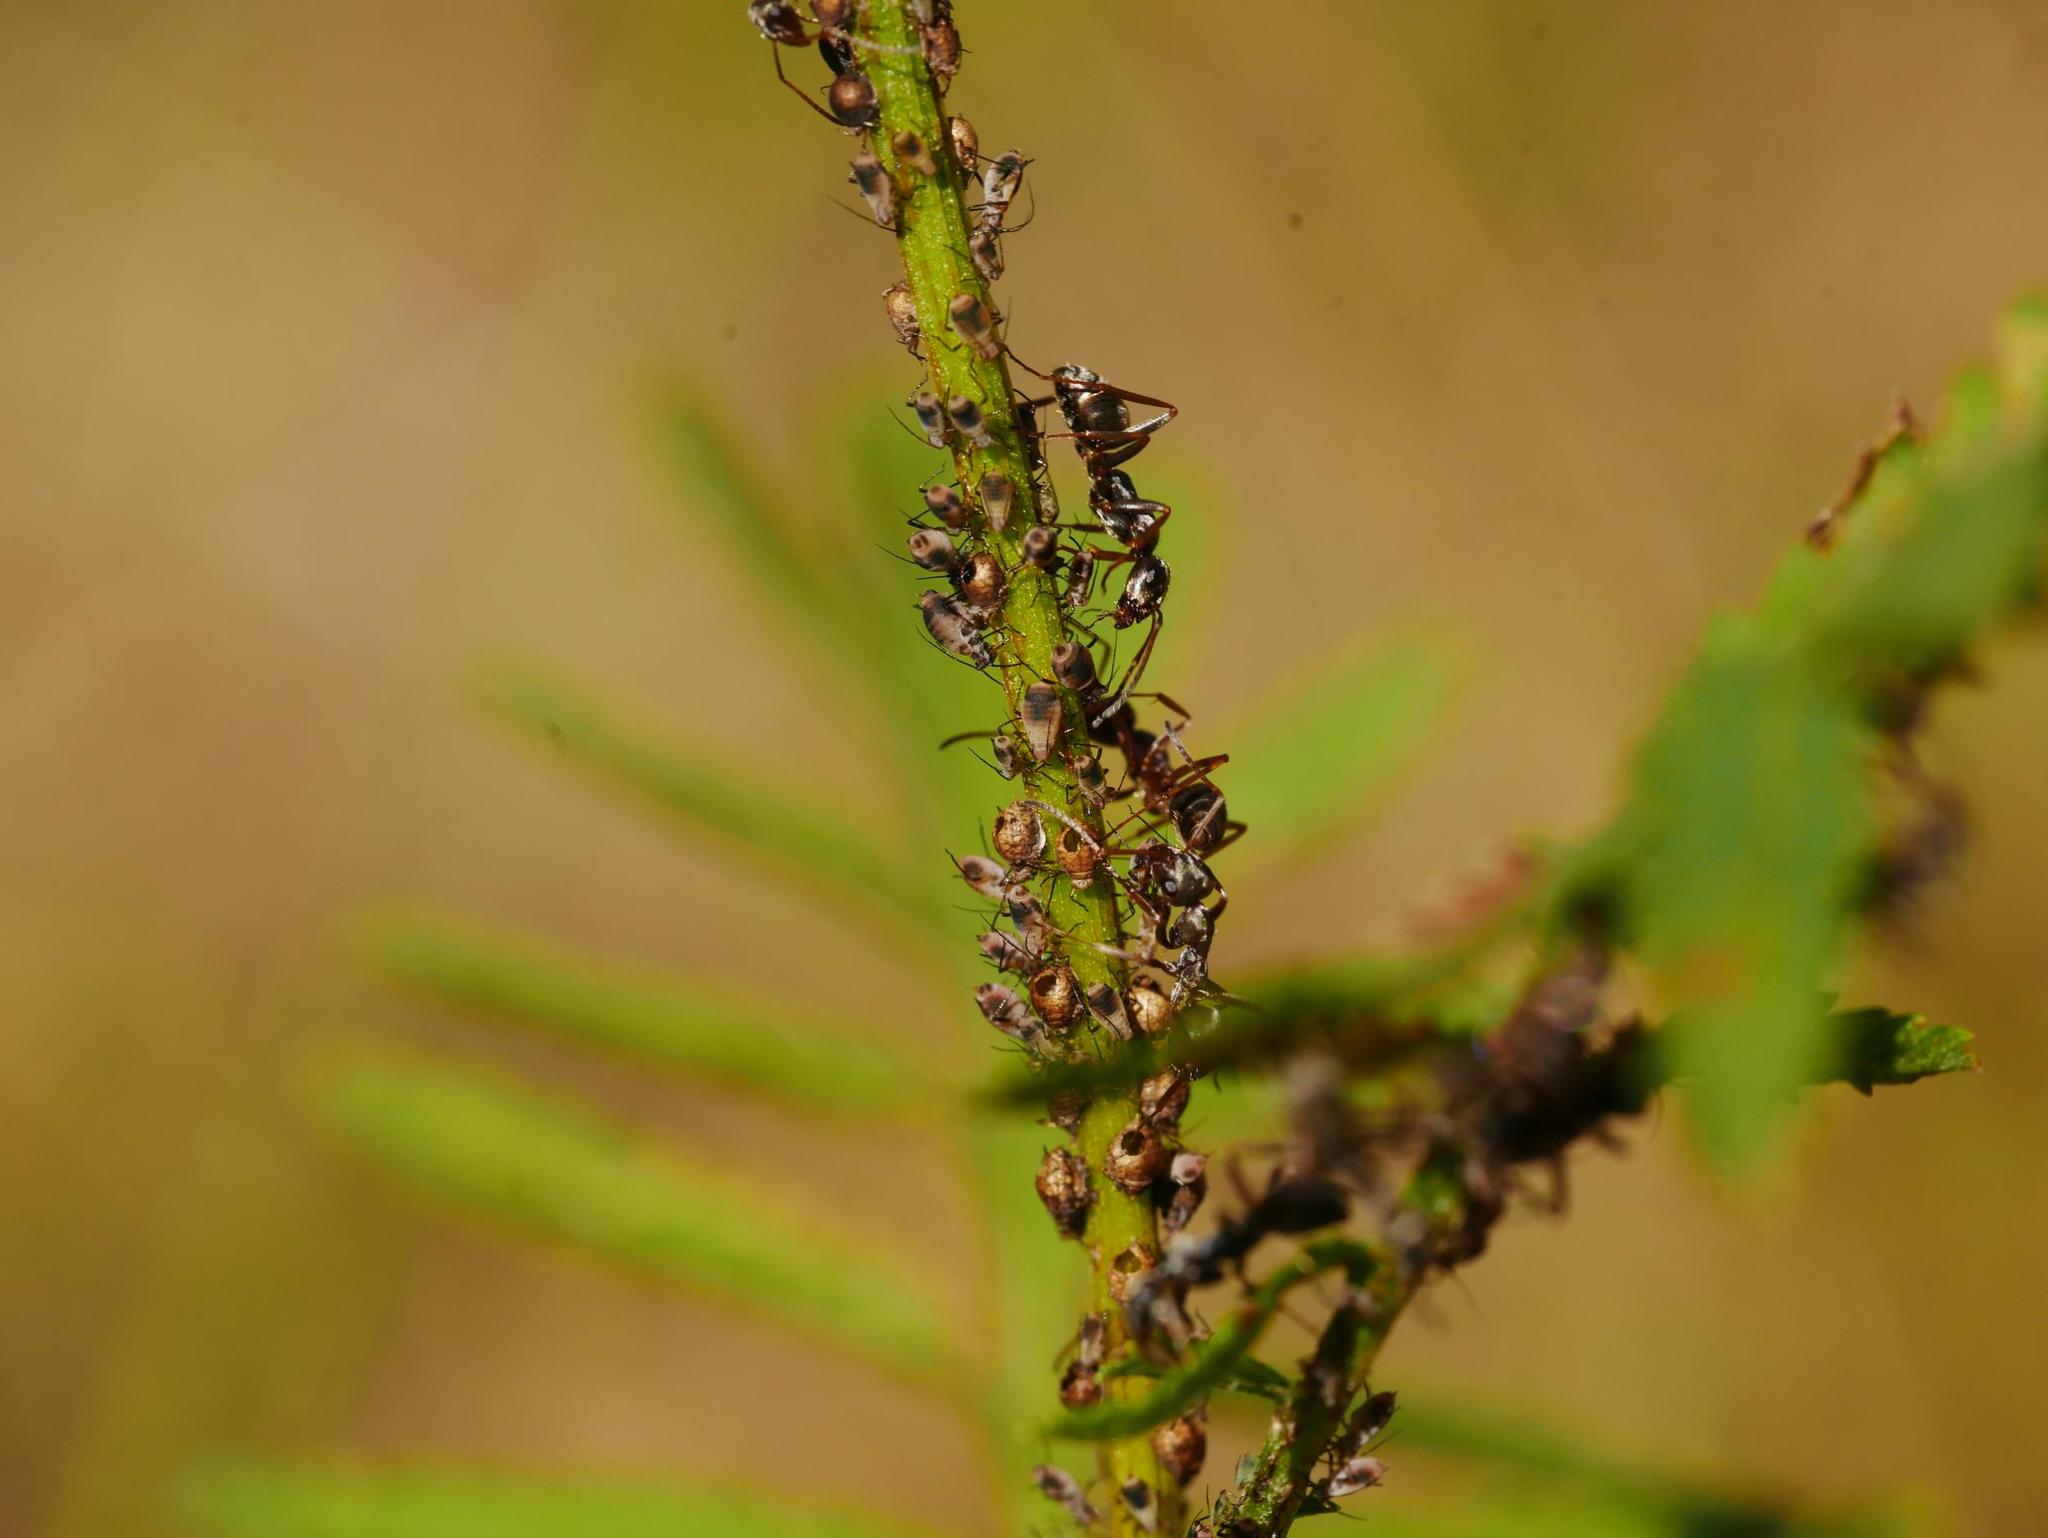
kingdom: Animalia
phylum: Arthropoda
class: Insecta
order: Hymenoptera
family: Formicidae
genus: Formica
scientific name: Formica cinerea
